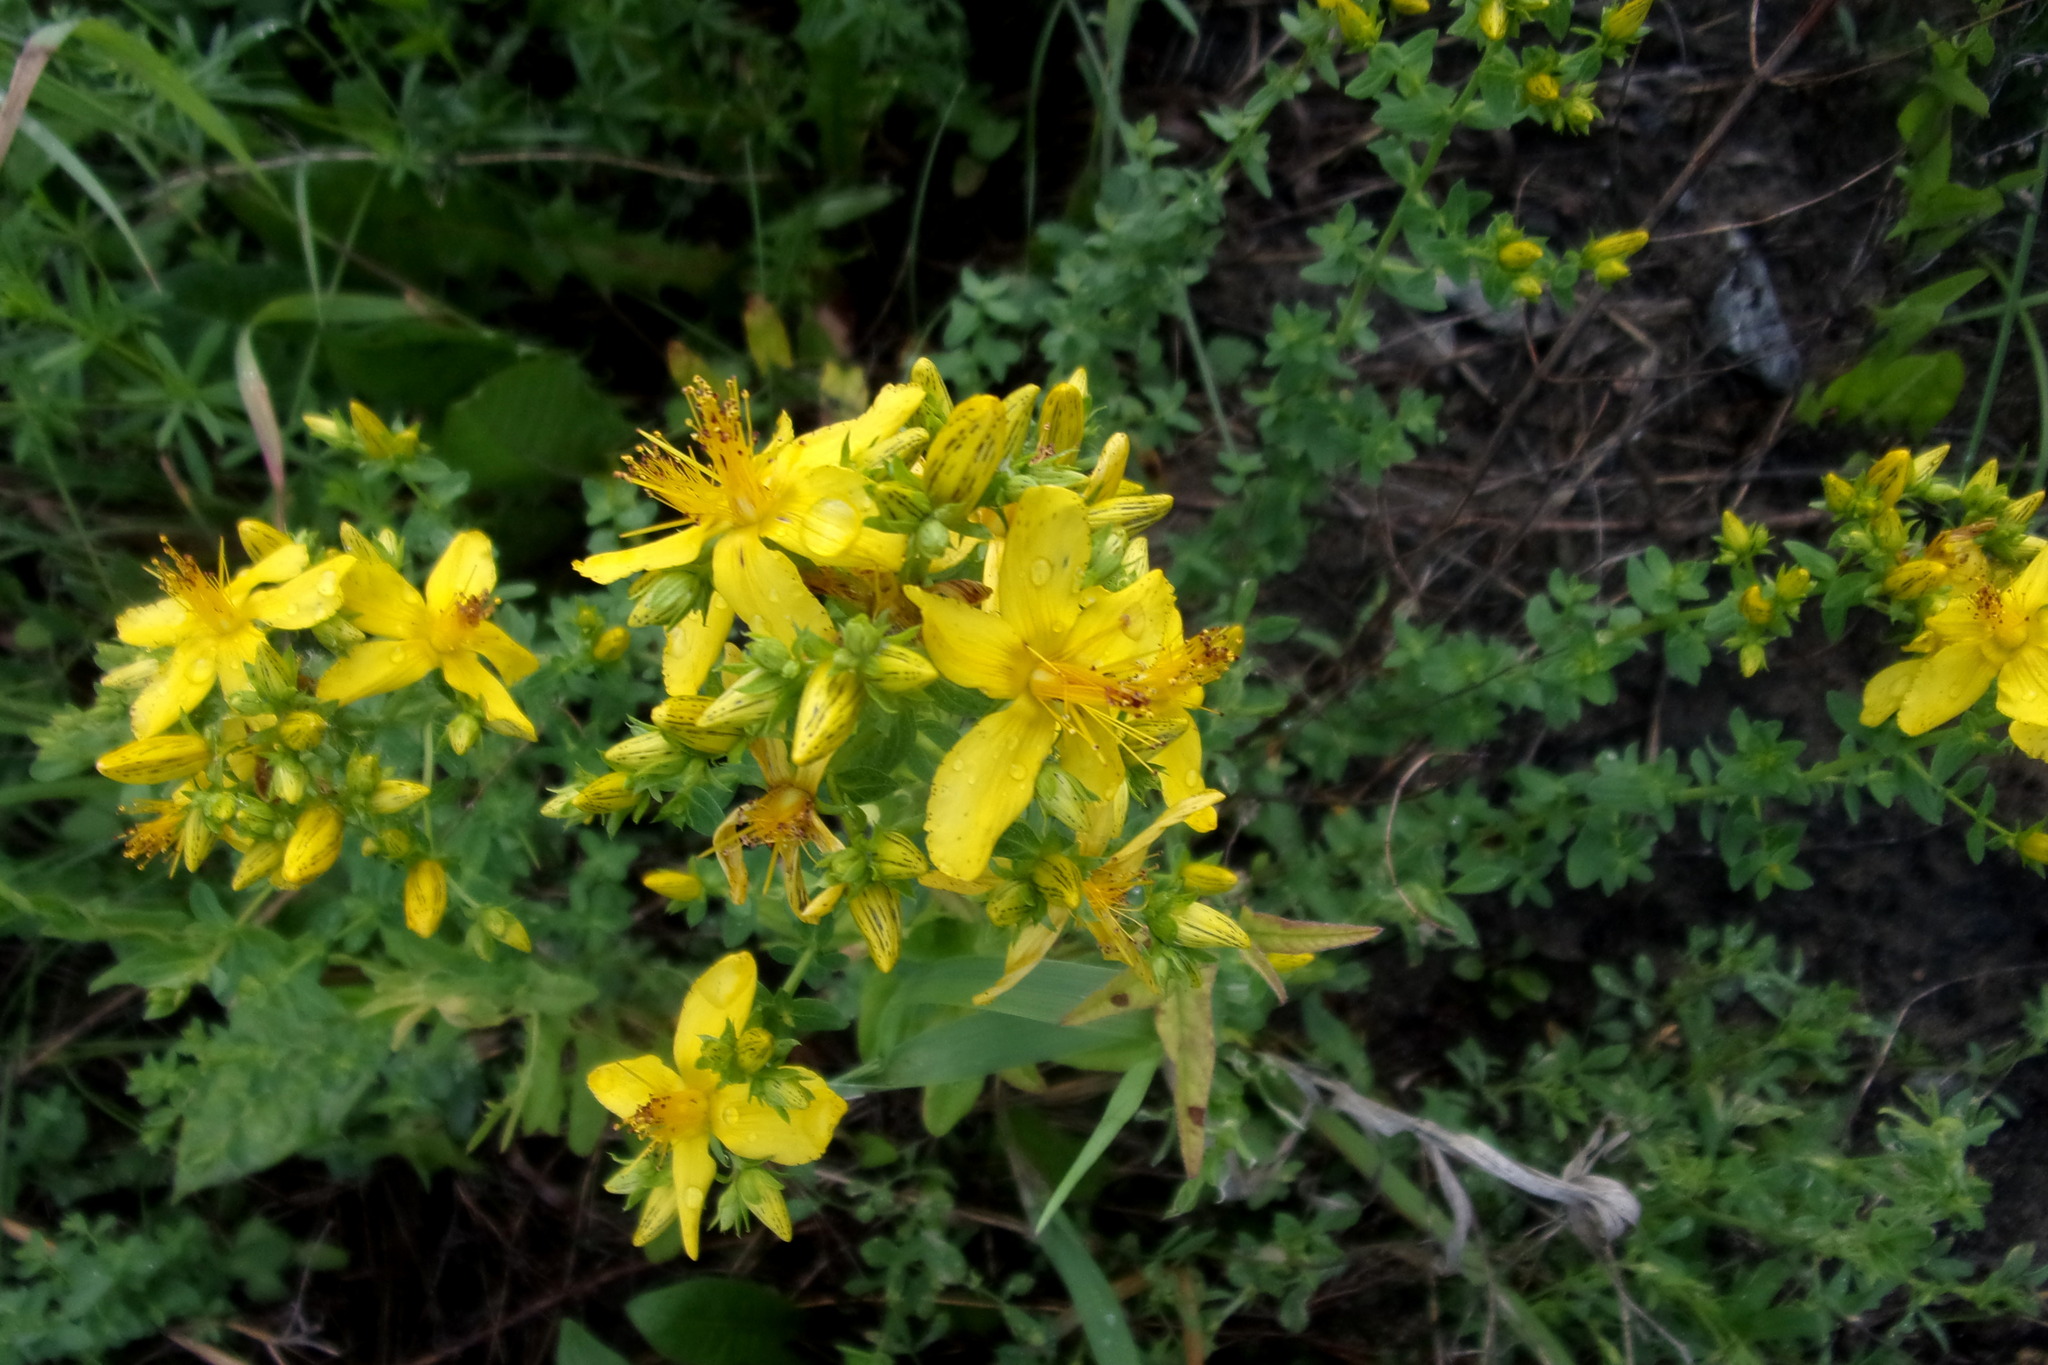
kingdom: Plantae
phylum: Tracheophyta
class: Magnoliopsida
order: Malpighiales
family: Hypericaceae
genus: Hypericum
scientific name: Hypericum perforatum
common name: Common st. johnswort
